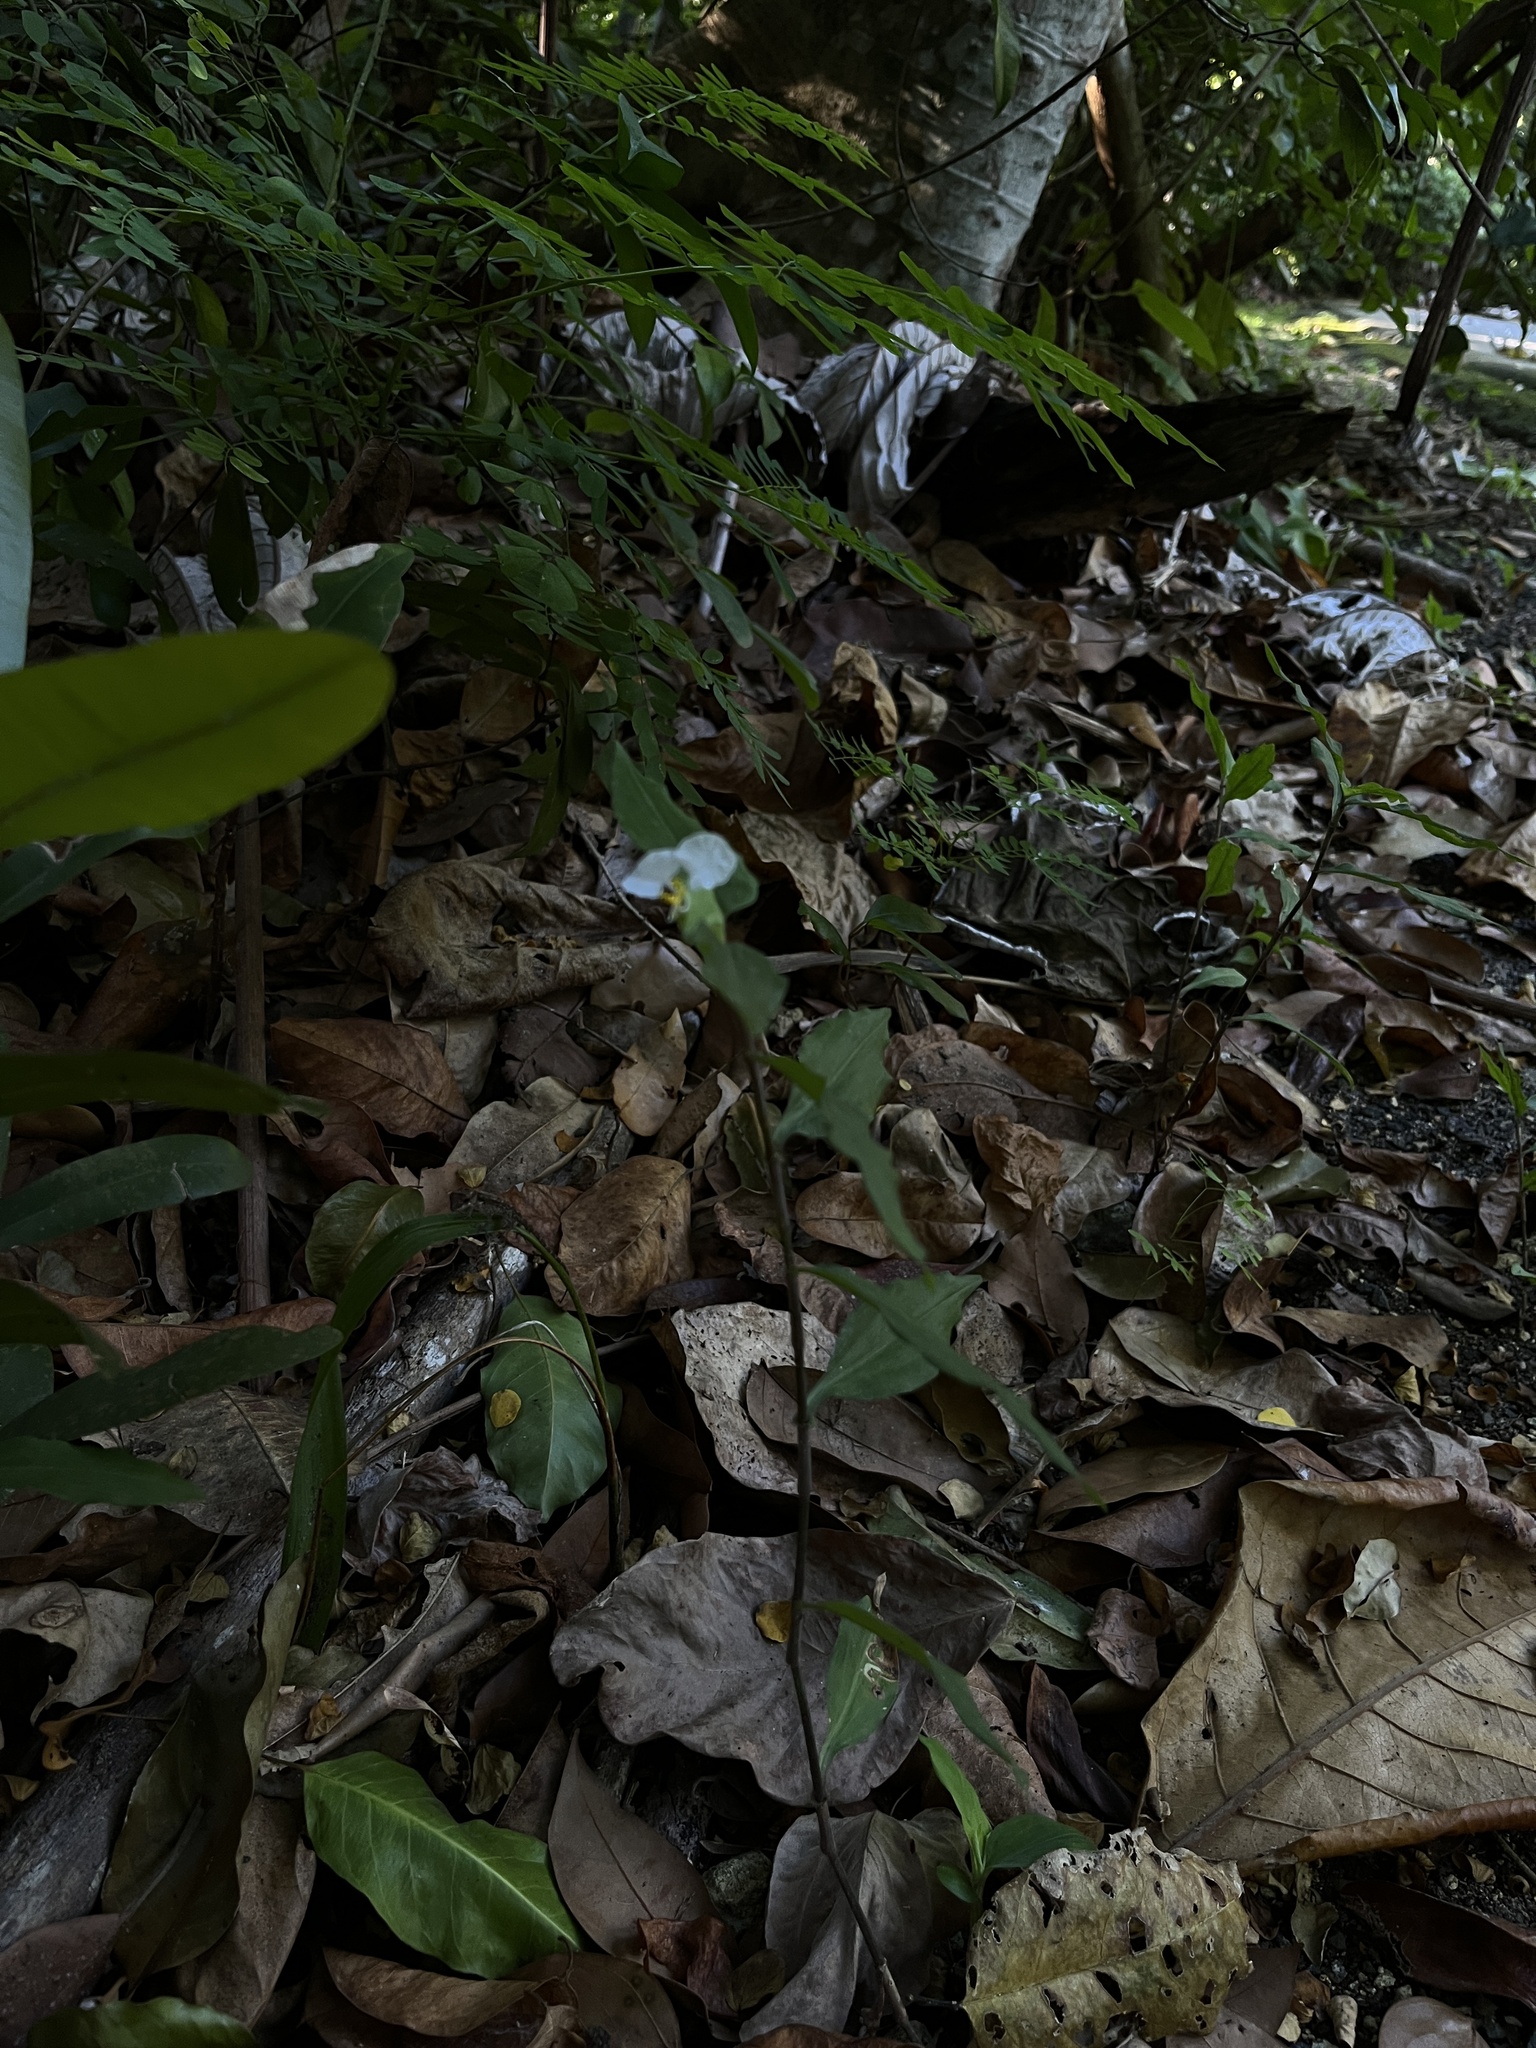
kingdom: Plantae
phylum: Tracheophyta
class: Liliopsida
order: Commelinales
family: Commelinaceae
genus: Commelina
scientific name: Commelina erecta
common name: Blousel blommetjie
